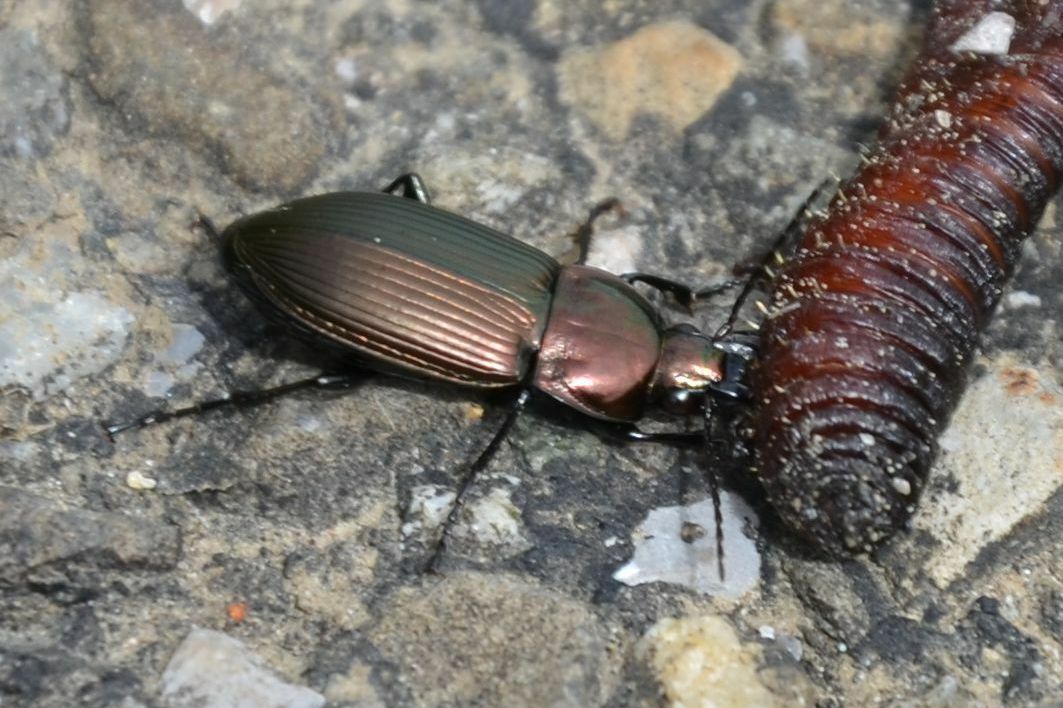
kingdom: Animalia
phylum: Arthropoda
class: Insecta
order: Coleoptera
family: Carabidae
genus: Poecilus
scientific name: Poecilus cupreus
